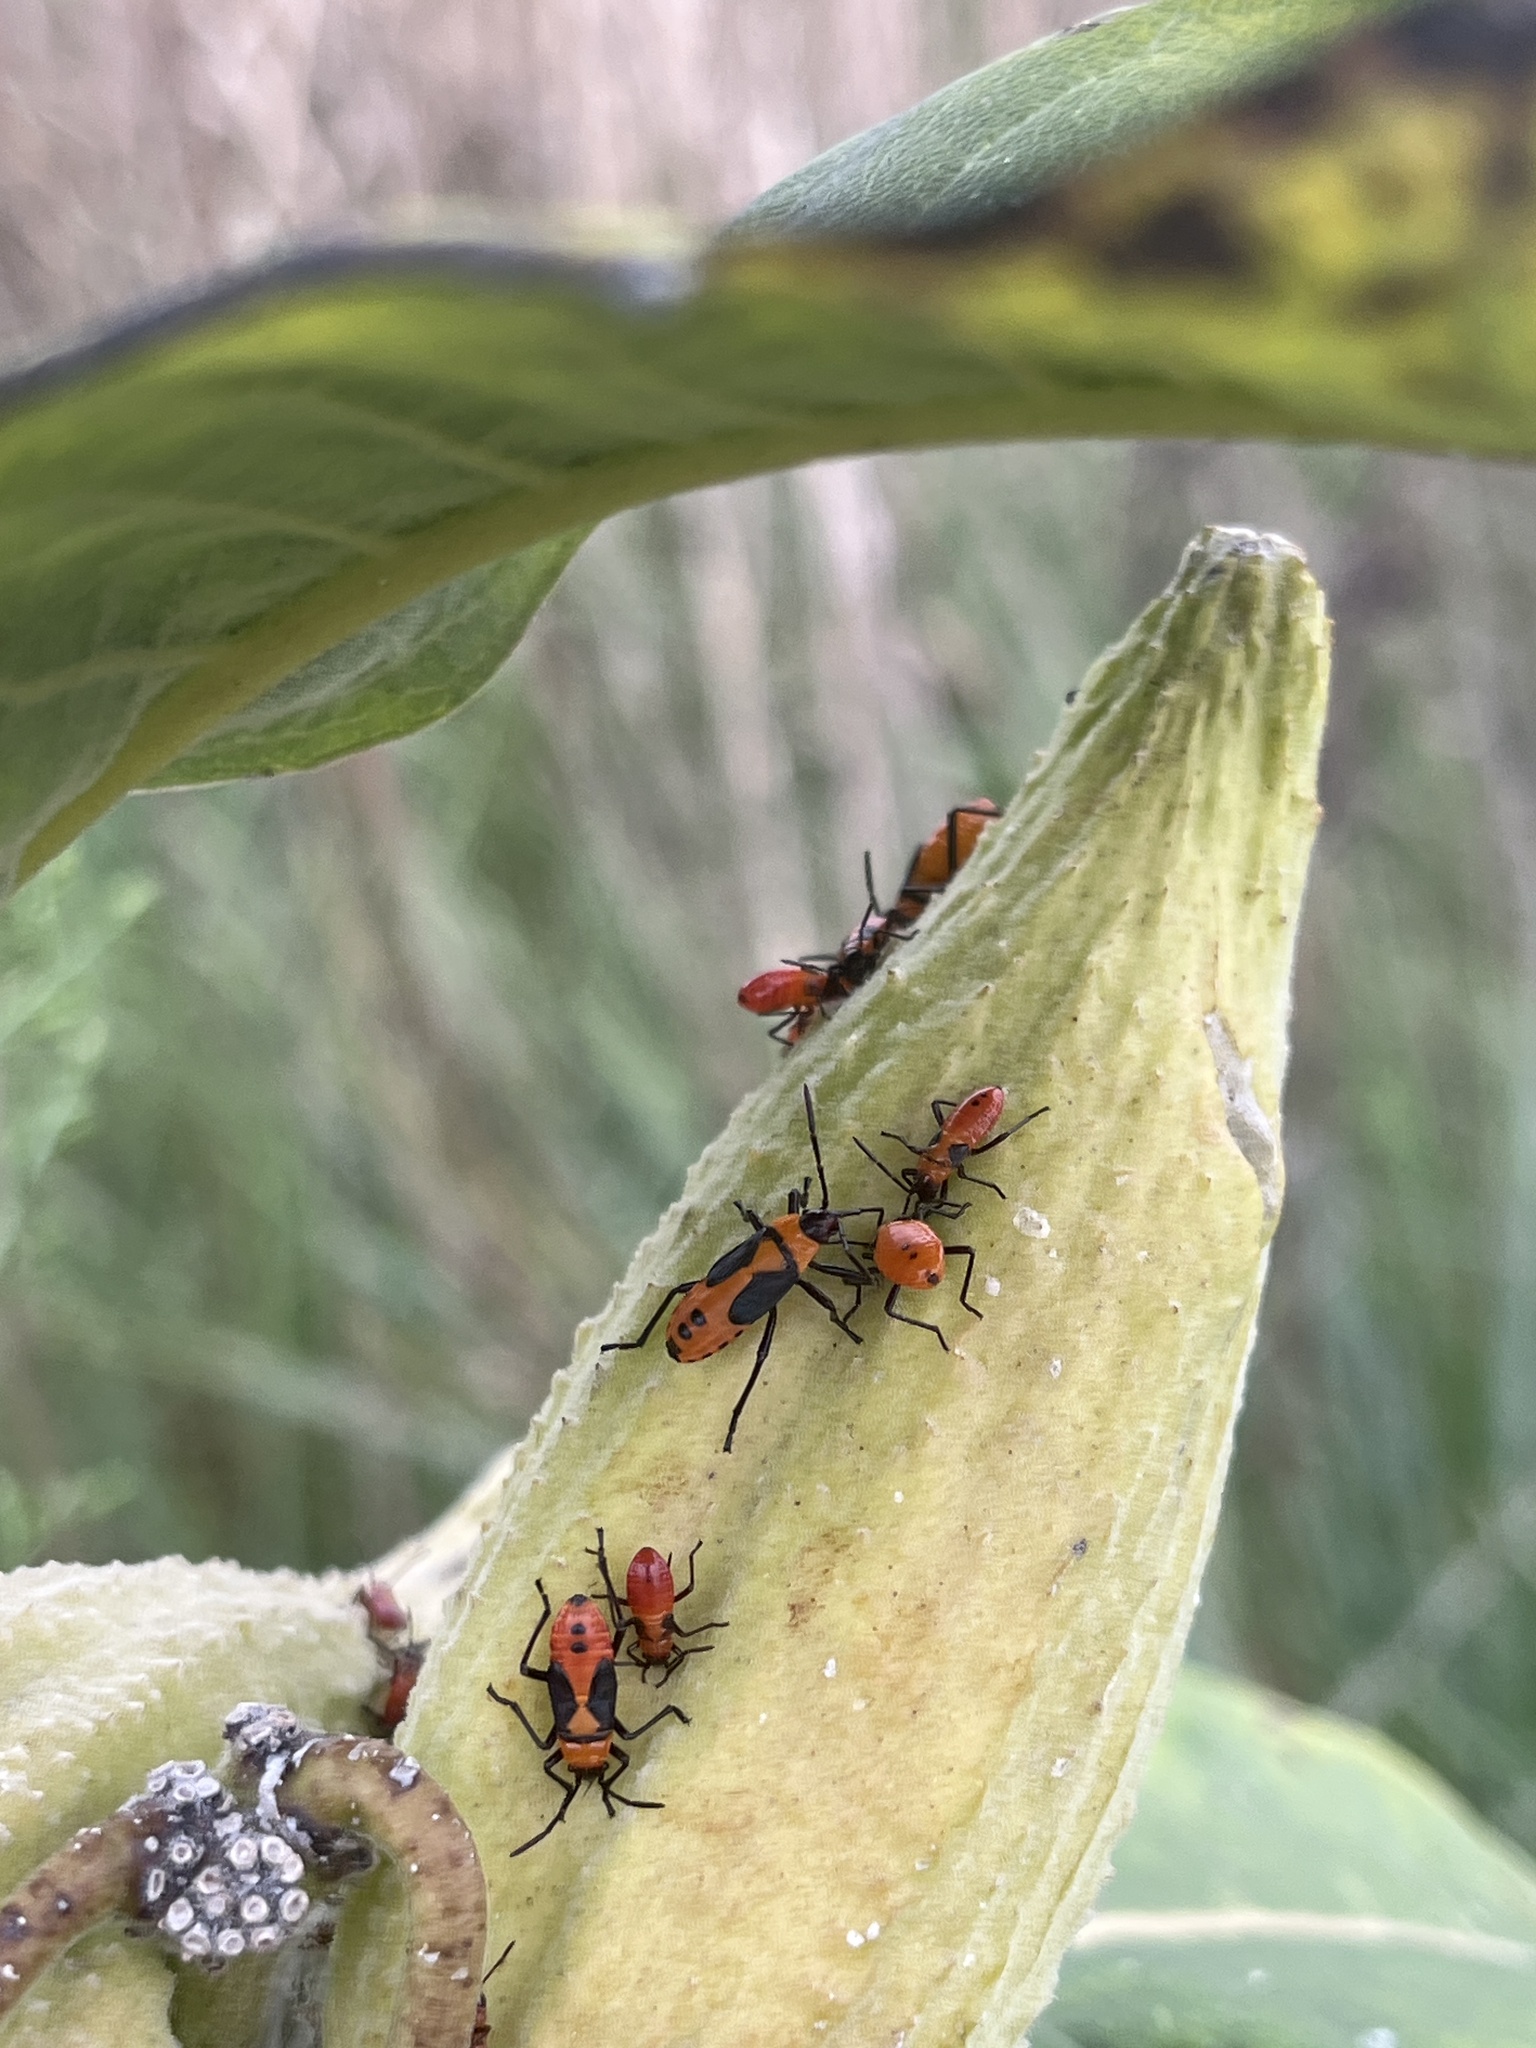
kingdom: Animalia
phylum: Arthropoda
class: Insecta
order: Hemiptera
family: Lygaeidae
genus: Oncopeltus
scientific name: Oncopeltus fasciatus
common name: Large milkweed bug
